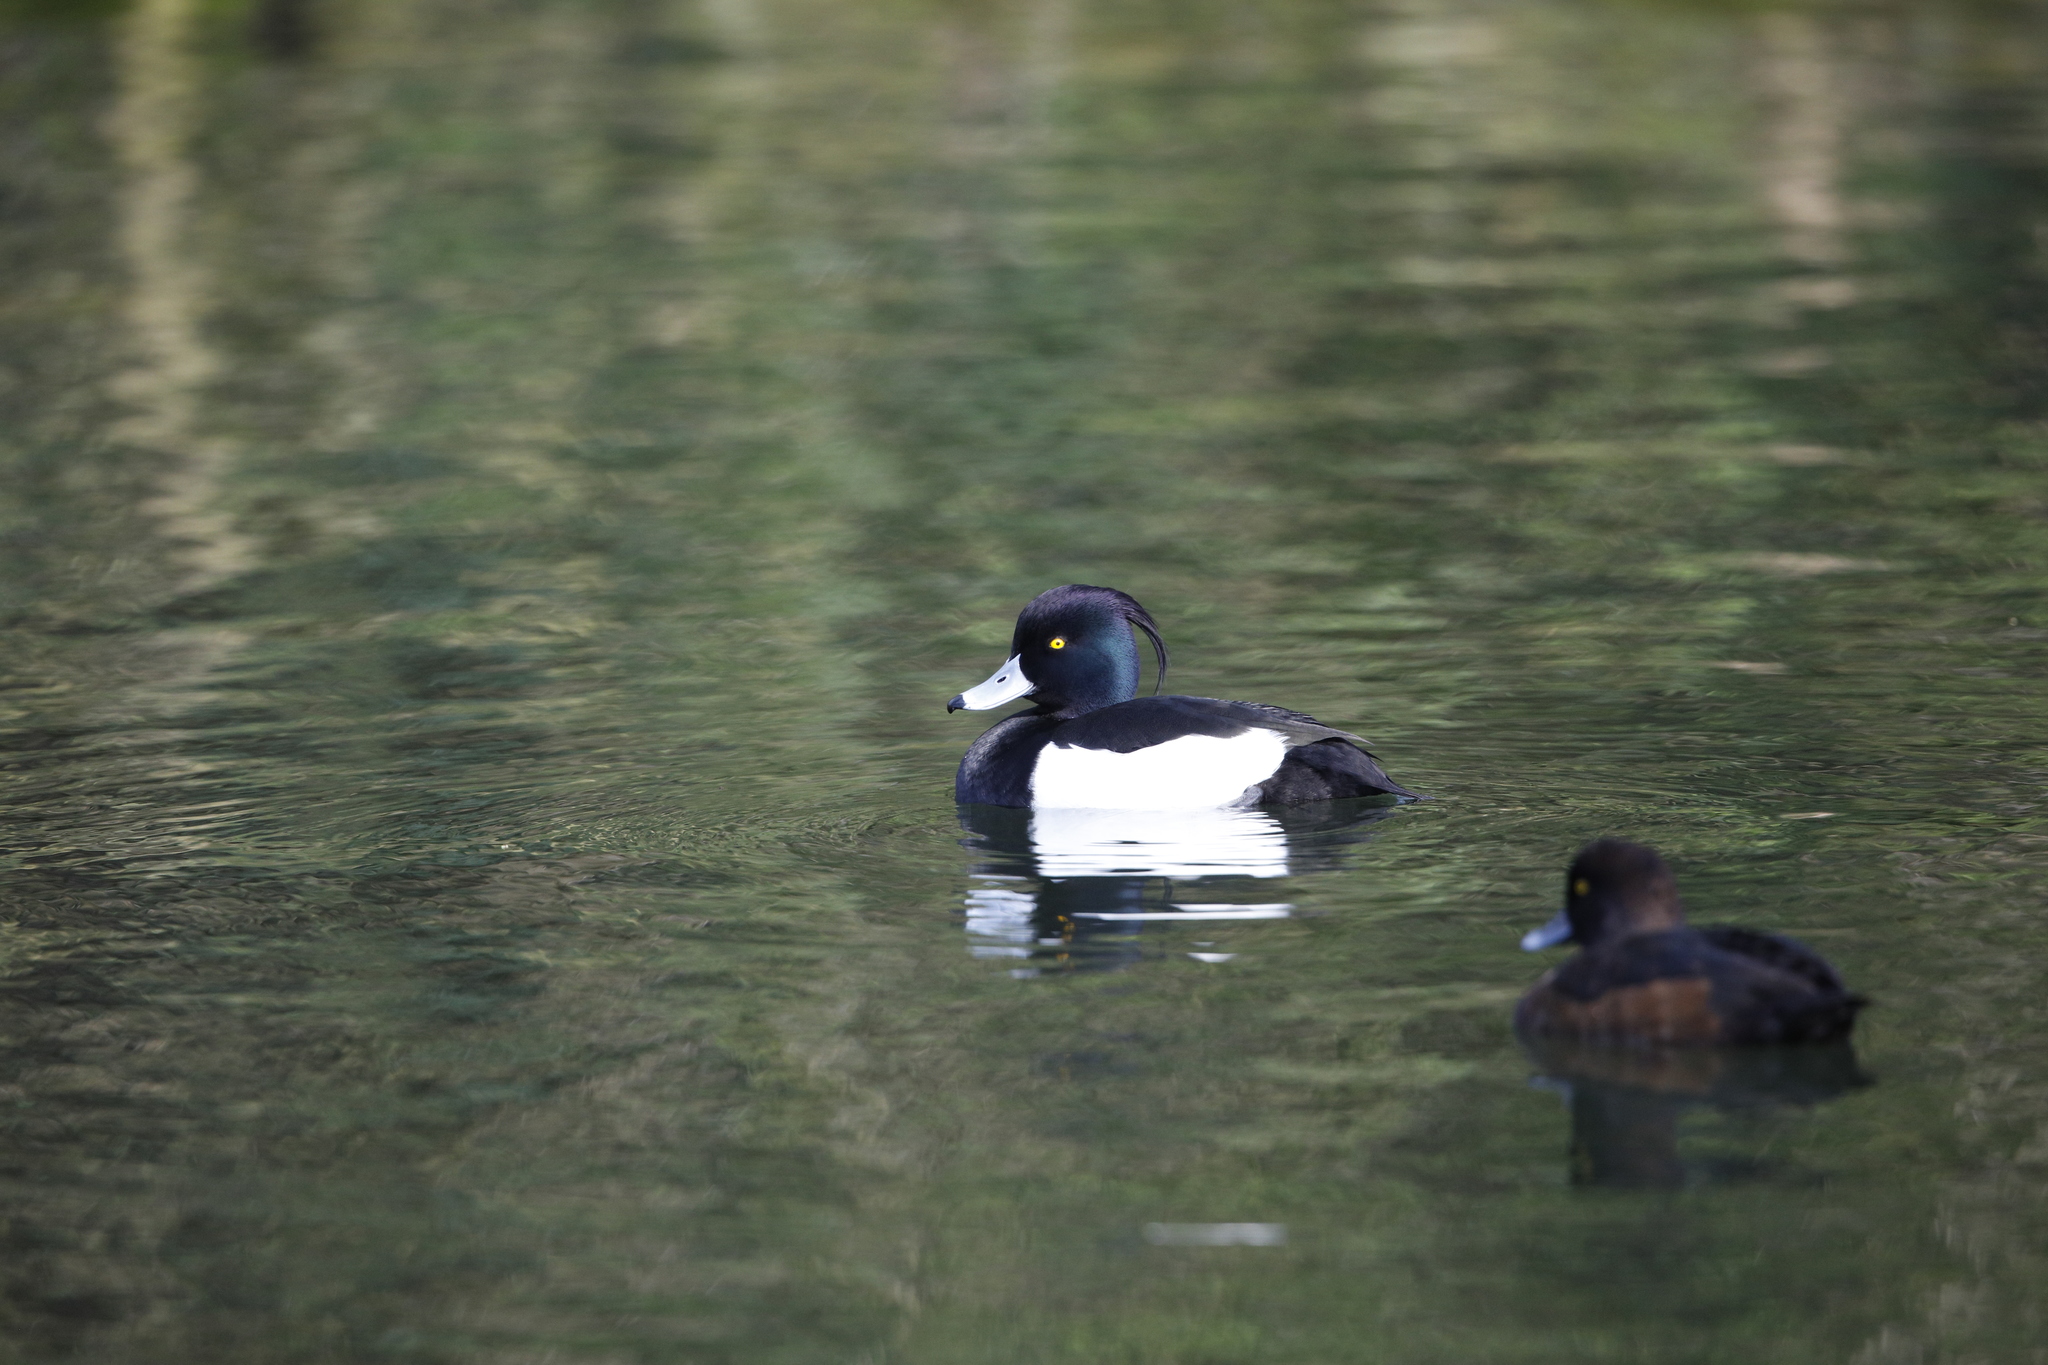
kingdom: Animalia
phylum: Chordata
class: Aves
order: Anseriformes
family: Anatidae
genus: Aythya
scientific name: Aythya fuligula
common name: Tufted duck
